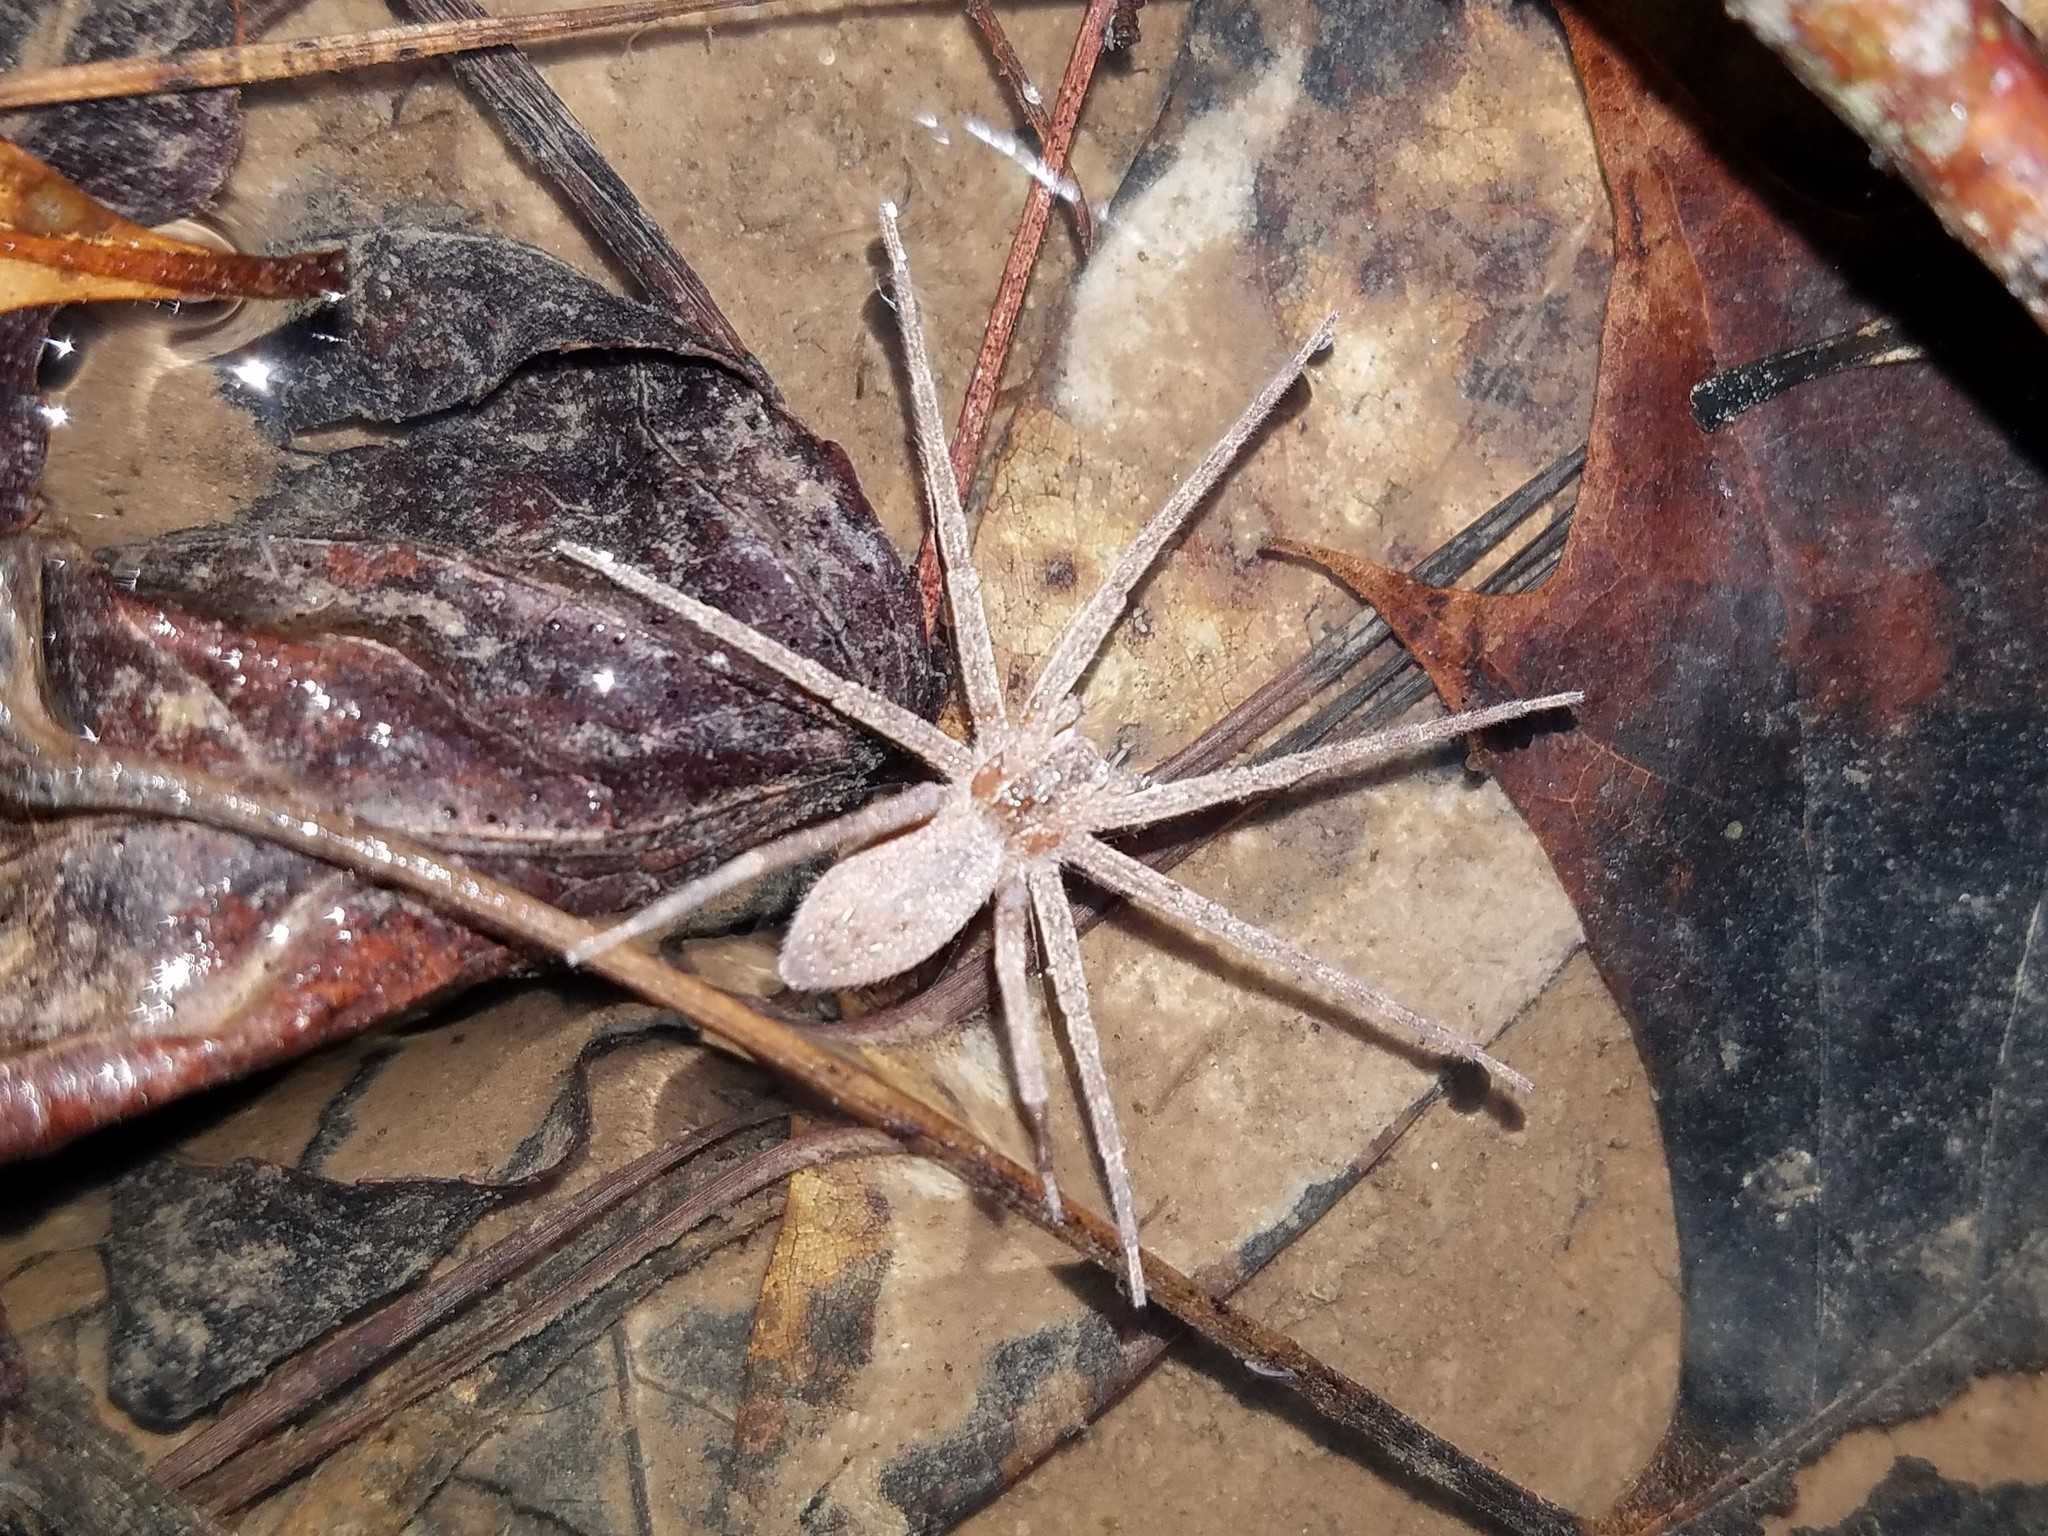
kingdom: Animalia
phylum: Arthropoda
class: Arachnida
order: Araneae
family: Pisauridae
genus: Pisaurina
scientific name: Pisaurina mira
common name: American nursery web spider
